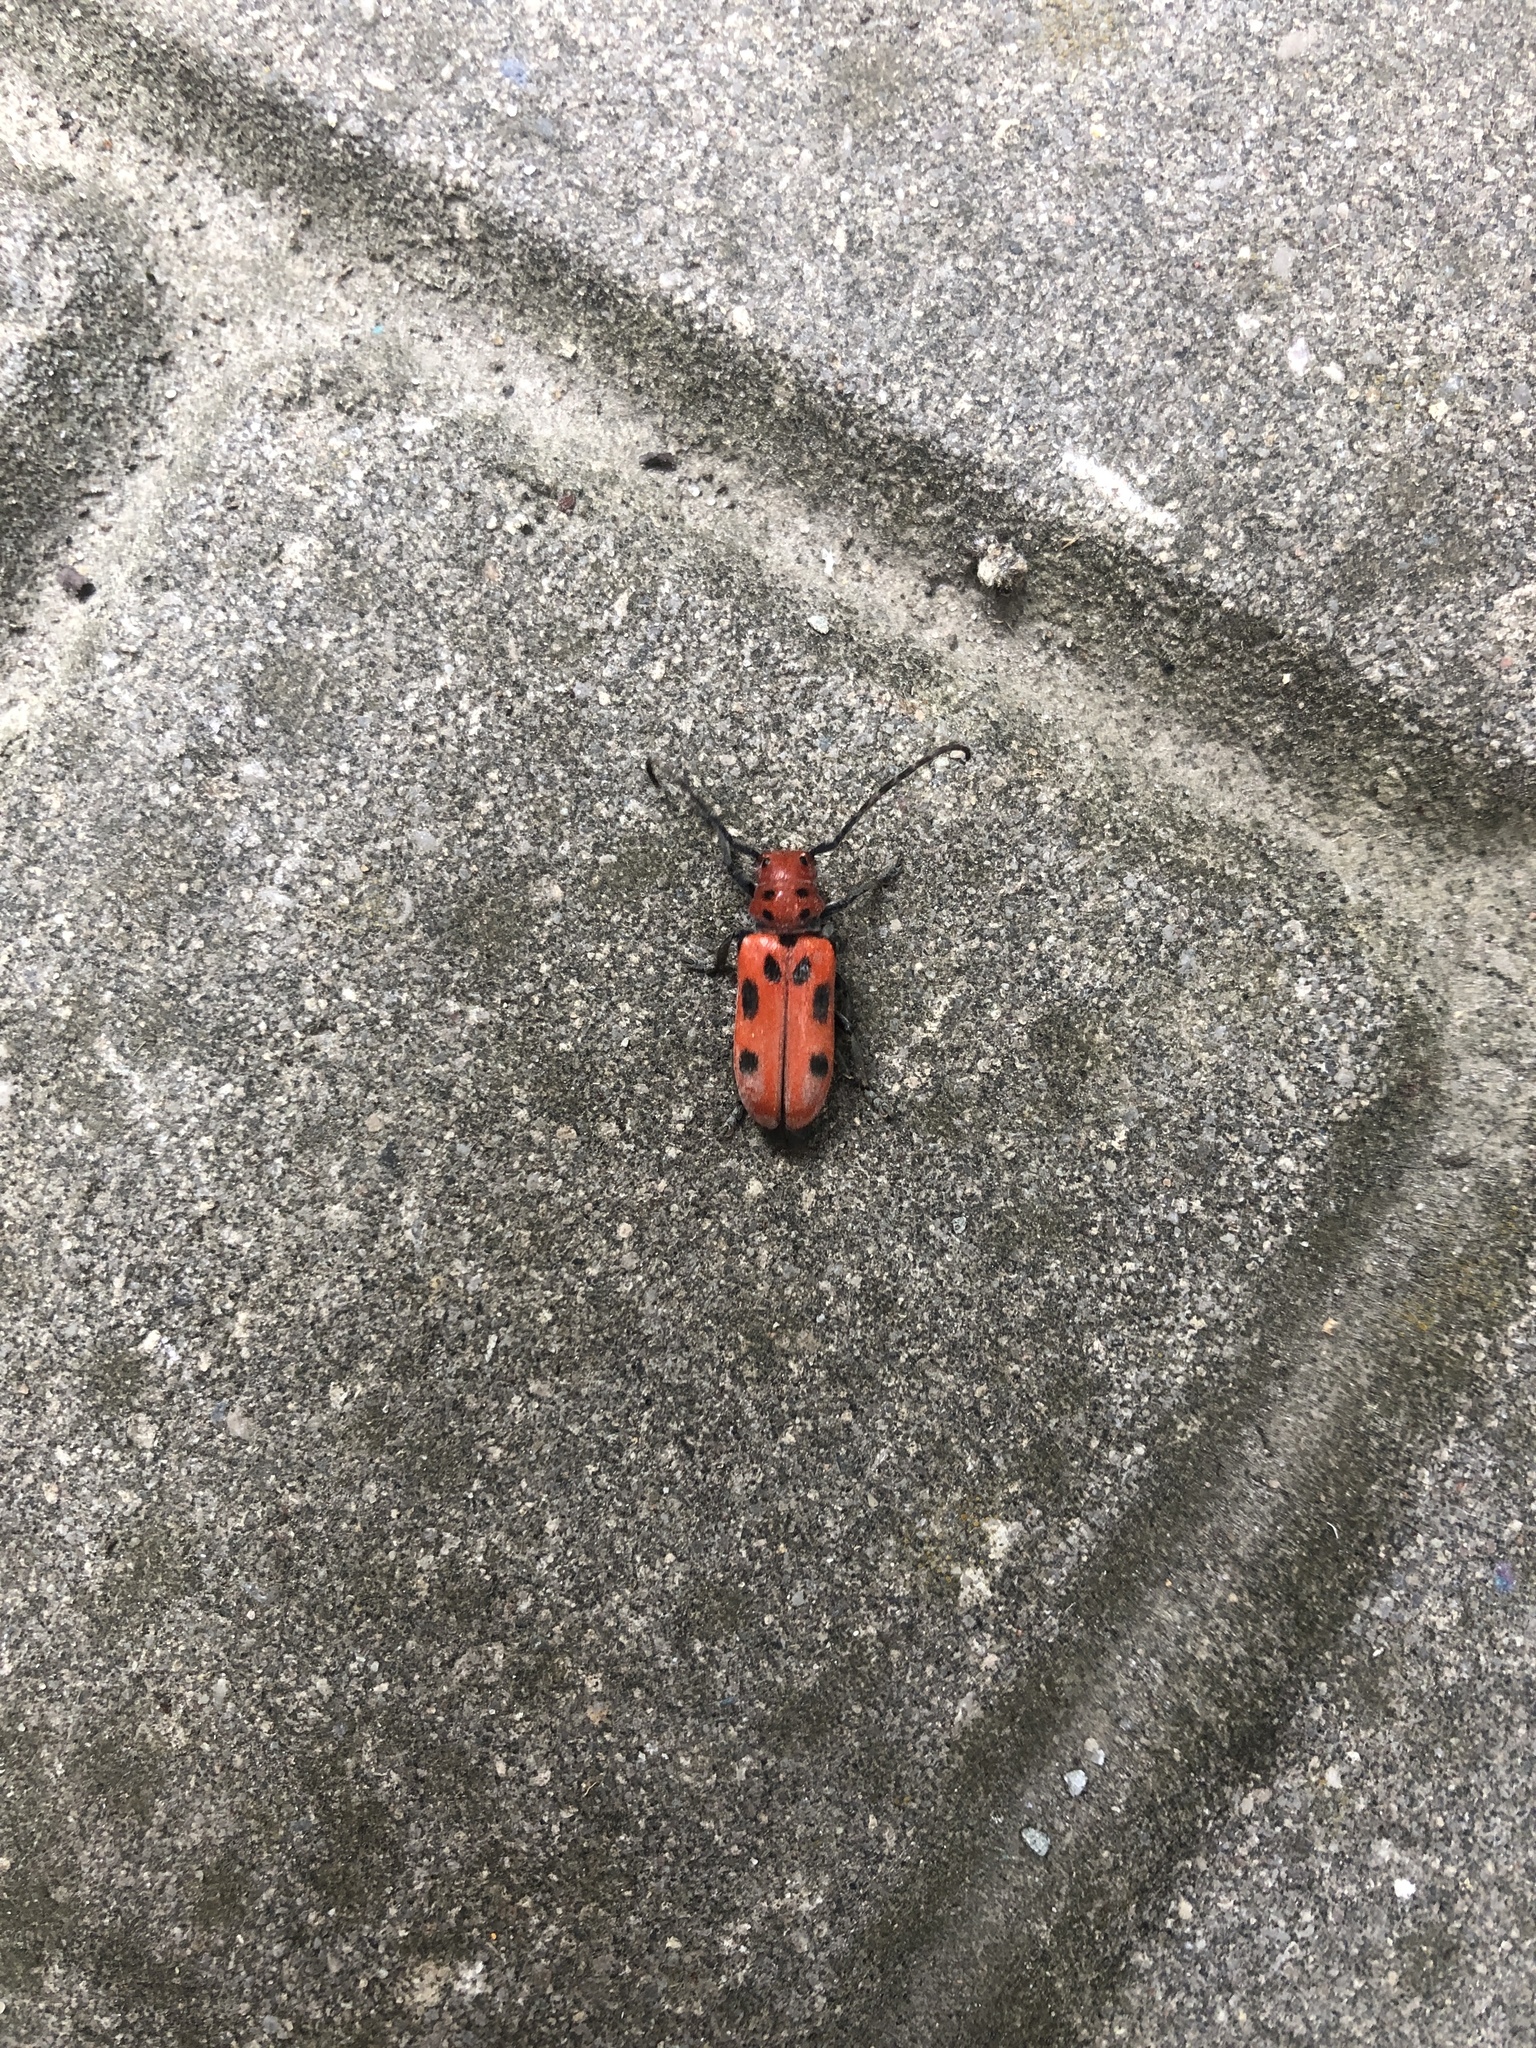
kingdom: Animalia
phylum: Arthropoda
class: Insecta
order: Coleoptera
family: Cerambycidae
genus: Tetraopes
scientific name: Tetraopes tetrophthalmus
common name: Red milkweed beetle
